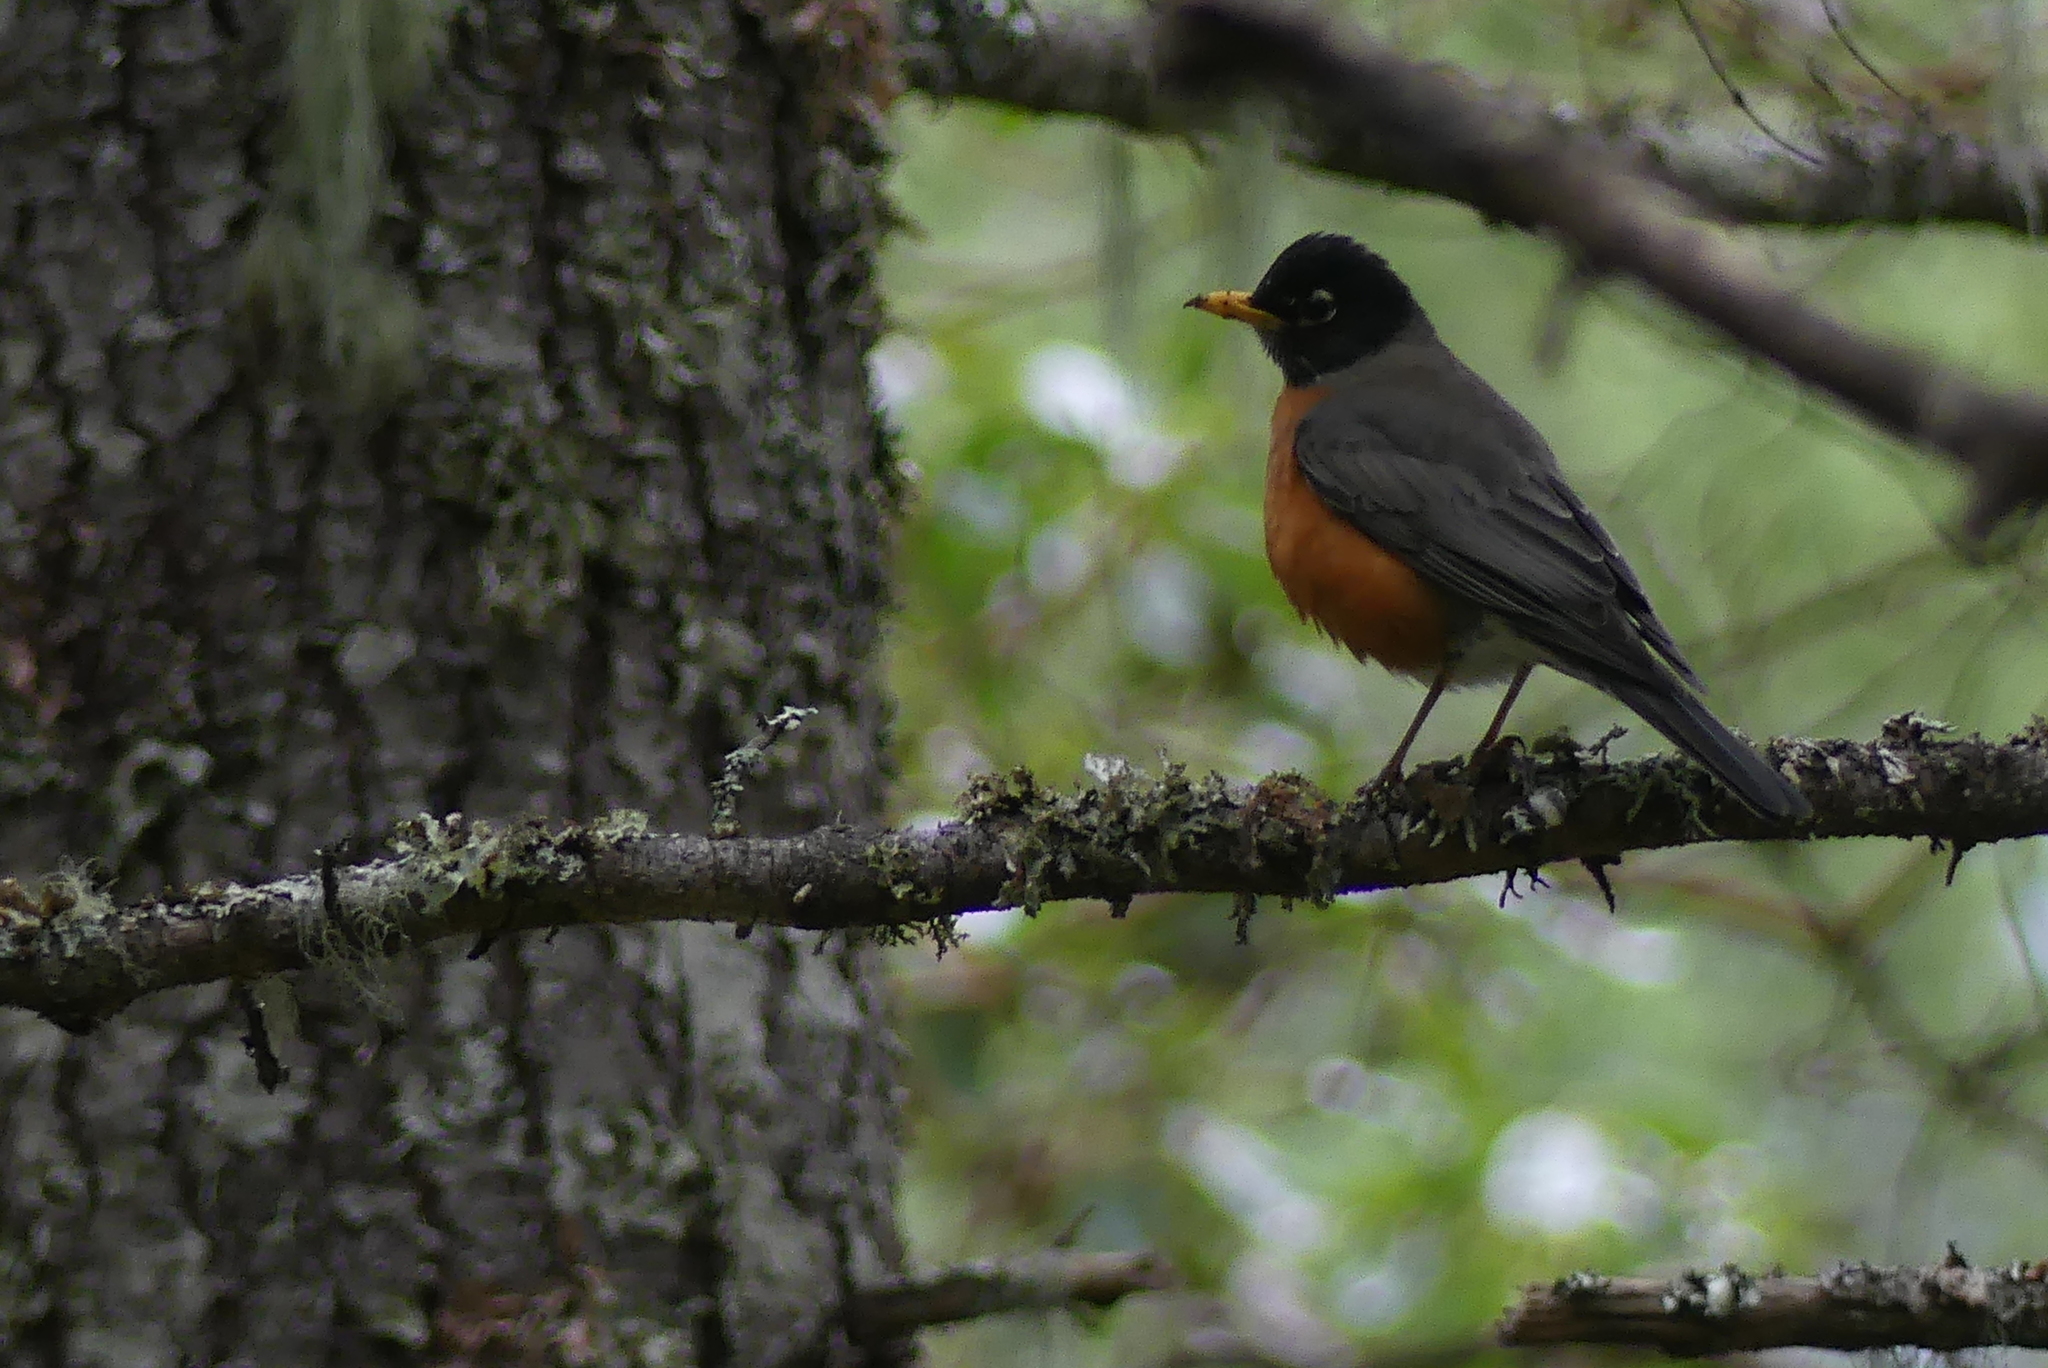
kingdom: Animalia
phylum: Chordata
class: Aves
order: Passeriformes
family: Turdidae
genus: Turdus
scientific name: Turdus migratorius
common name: American robin
